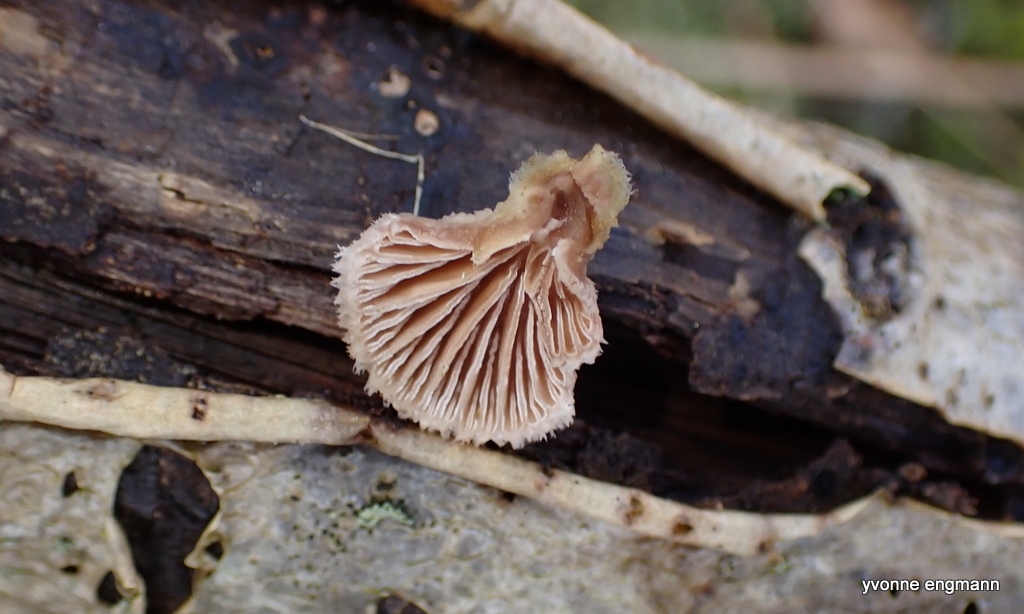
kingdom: Fungi
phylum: Basidiomycota
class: Agaricomycetes
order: Agaricales
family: Schizophyllaceae
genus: Schizophyllum
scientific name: Schizophyllum commune
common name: Common porecrust
